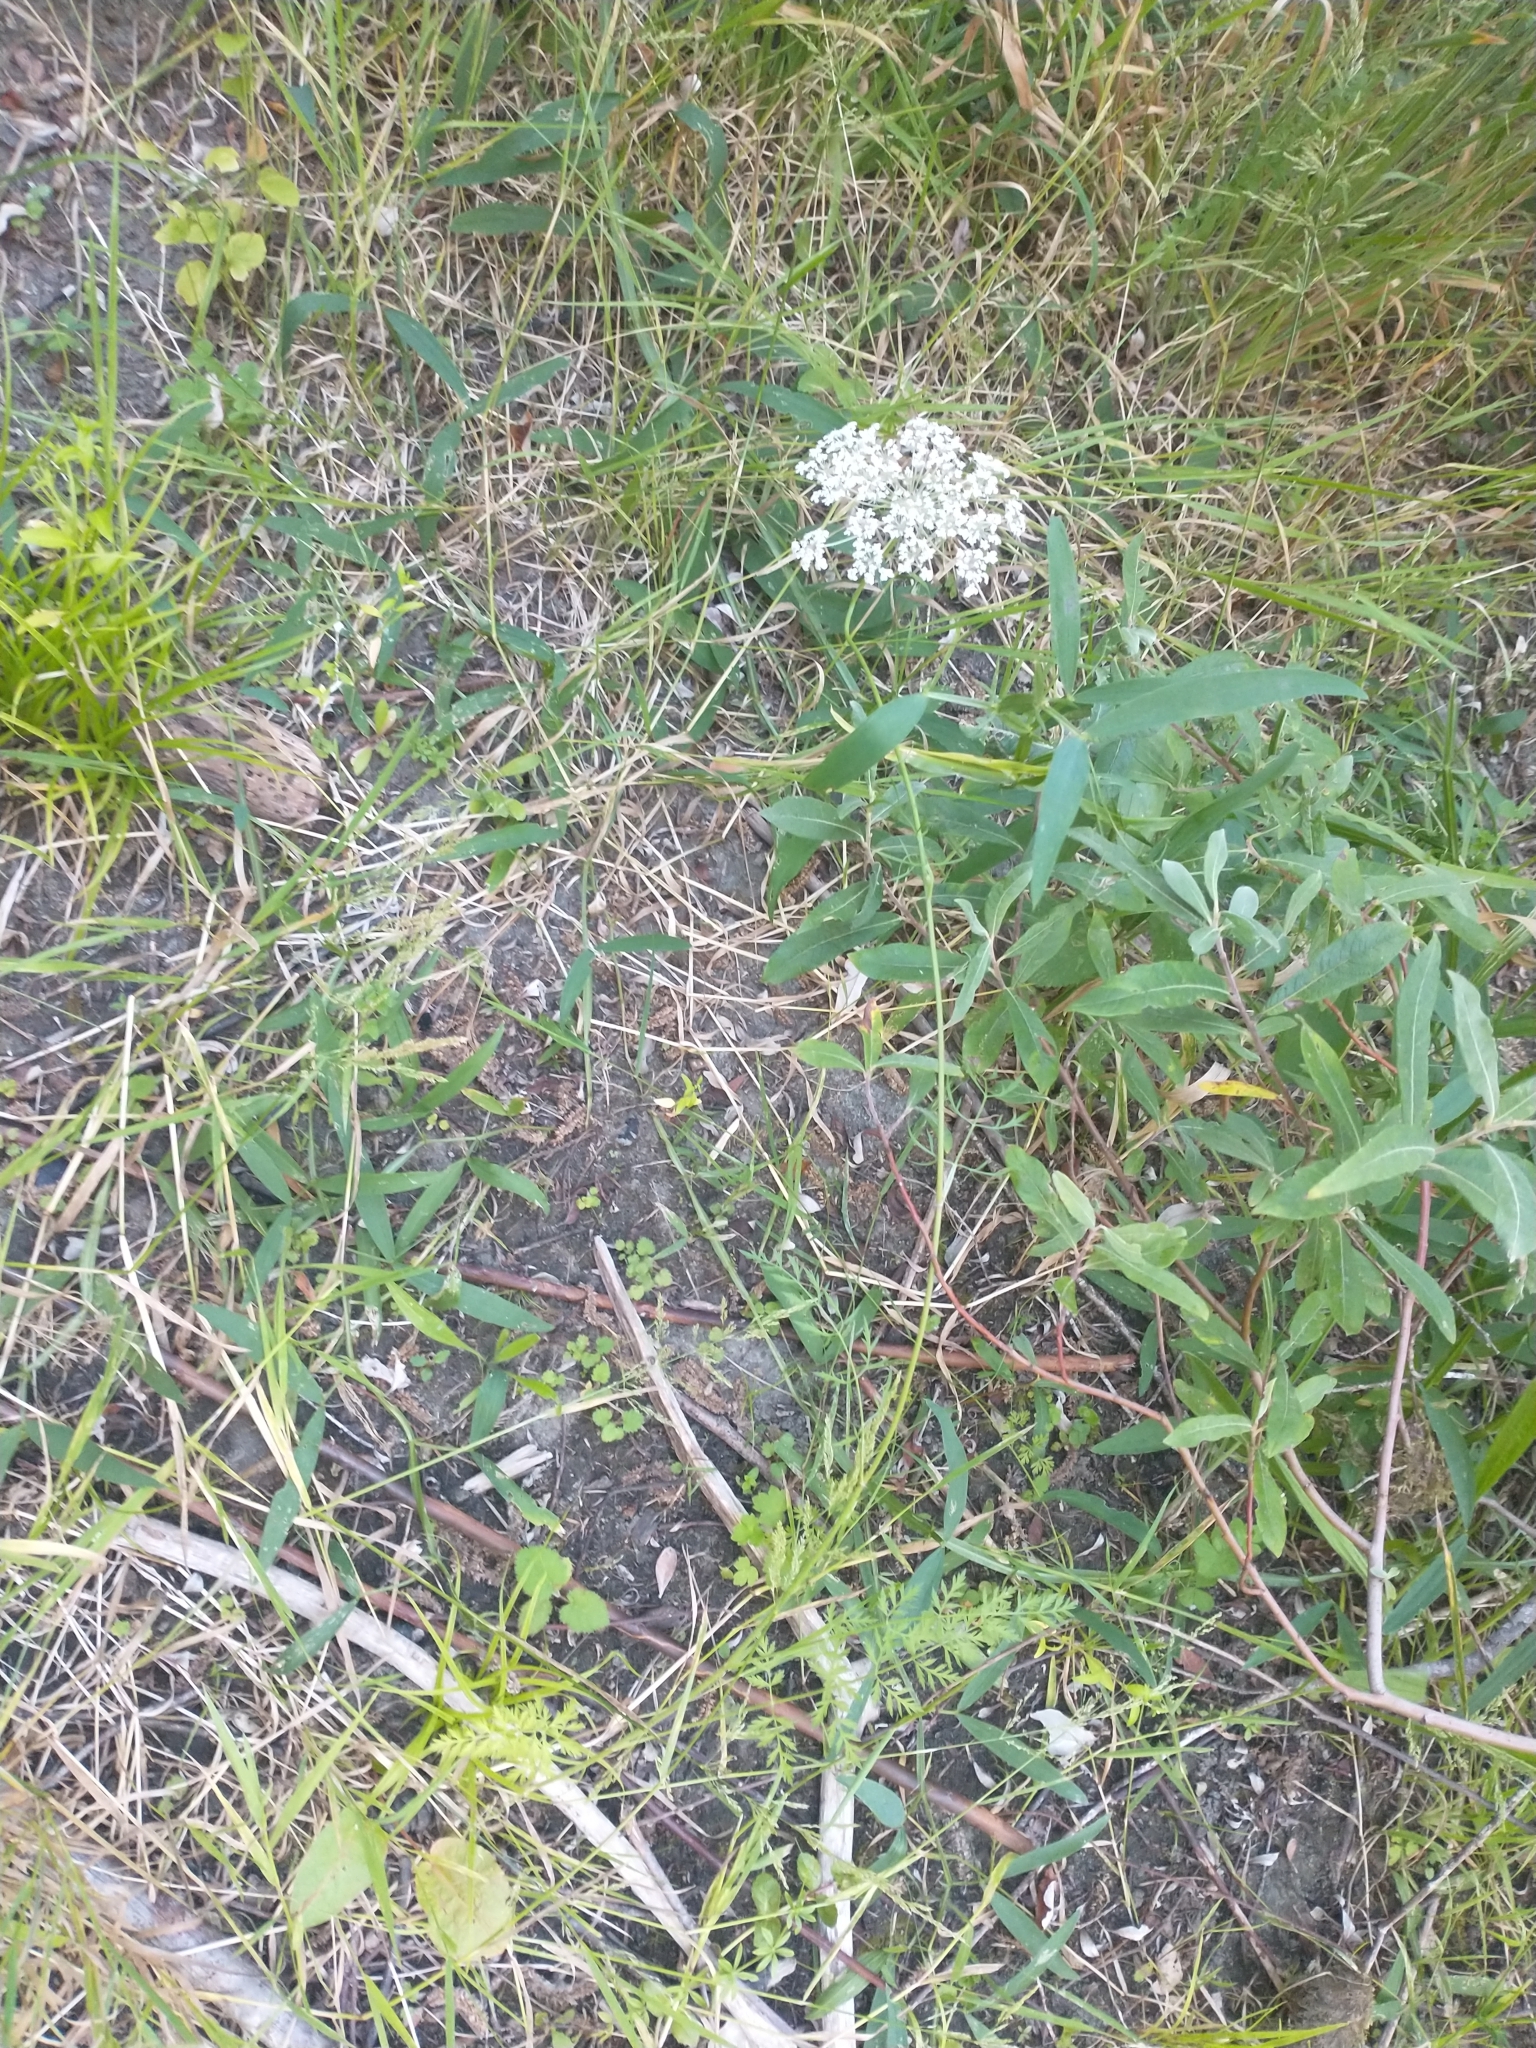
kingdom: Plantae
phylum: Tracheophyta
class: Magnoliopsida
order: Apiales
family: Apiaceae
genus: Daucus
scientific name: Daucus carota
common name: Wild carrot
